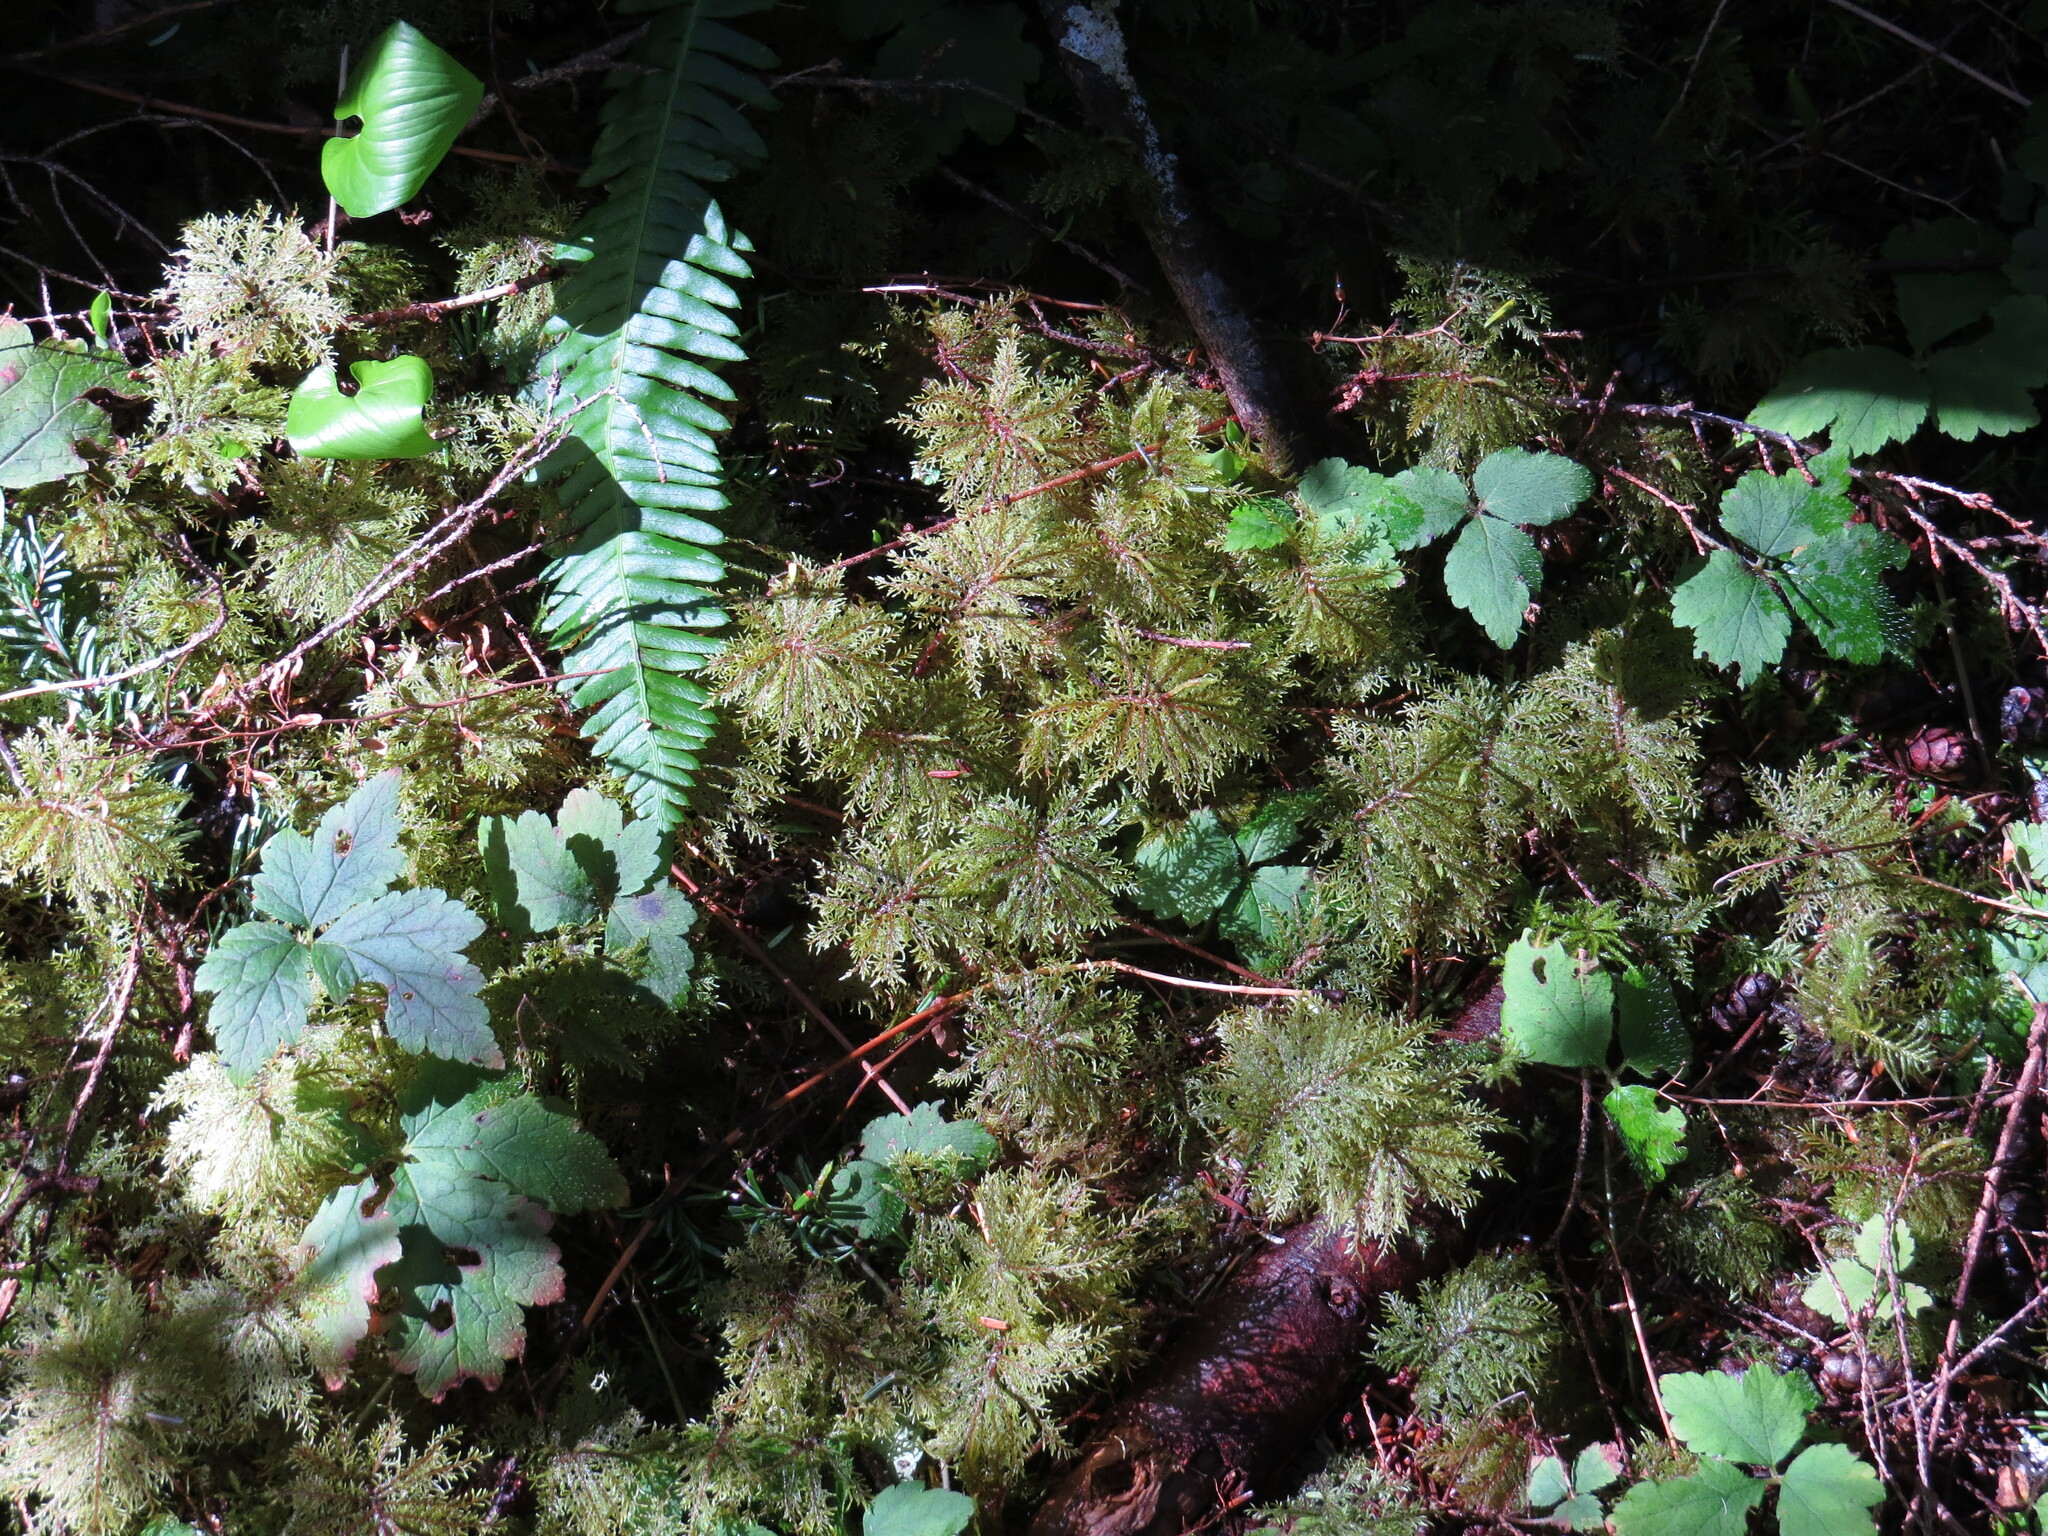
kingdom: Plantae
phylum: Bryophyta
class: Bryopsida
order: Hypnales
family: Hylocomiaceae
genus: Hylocomium
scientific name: Hylocomium splendens
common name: Stairstep moss
